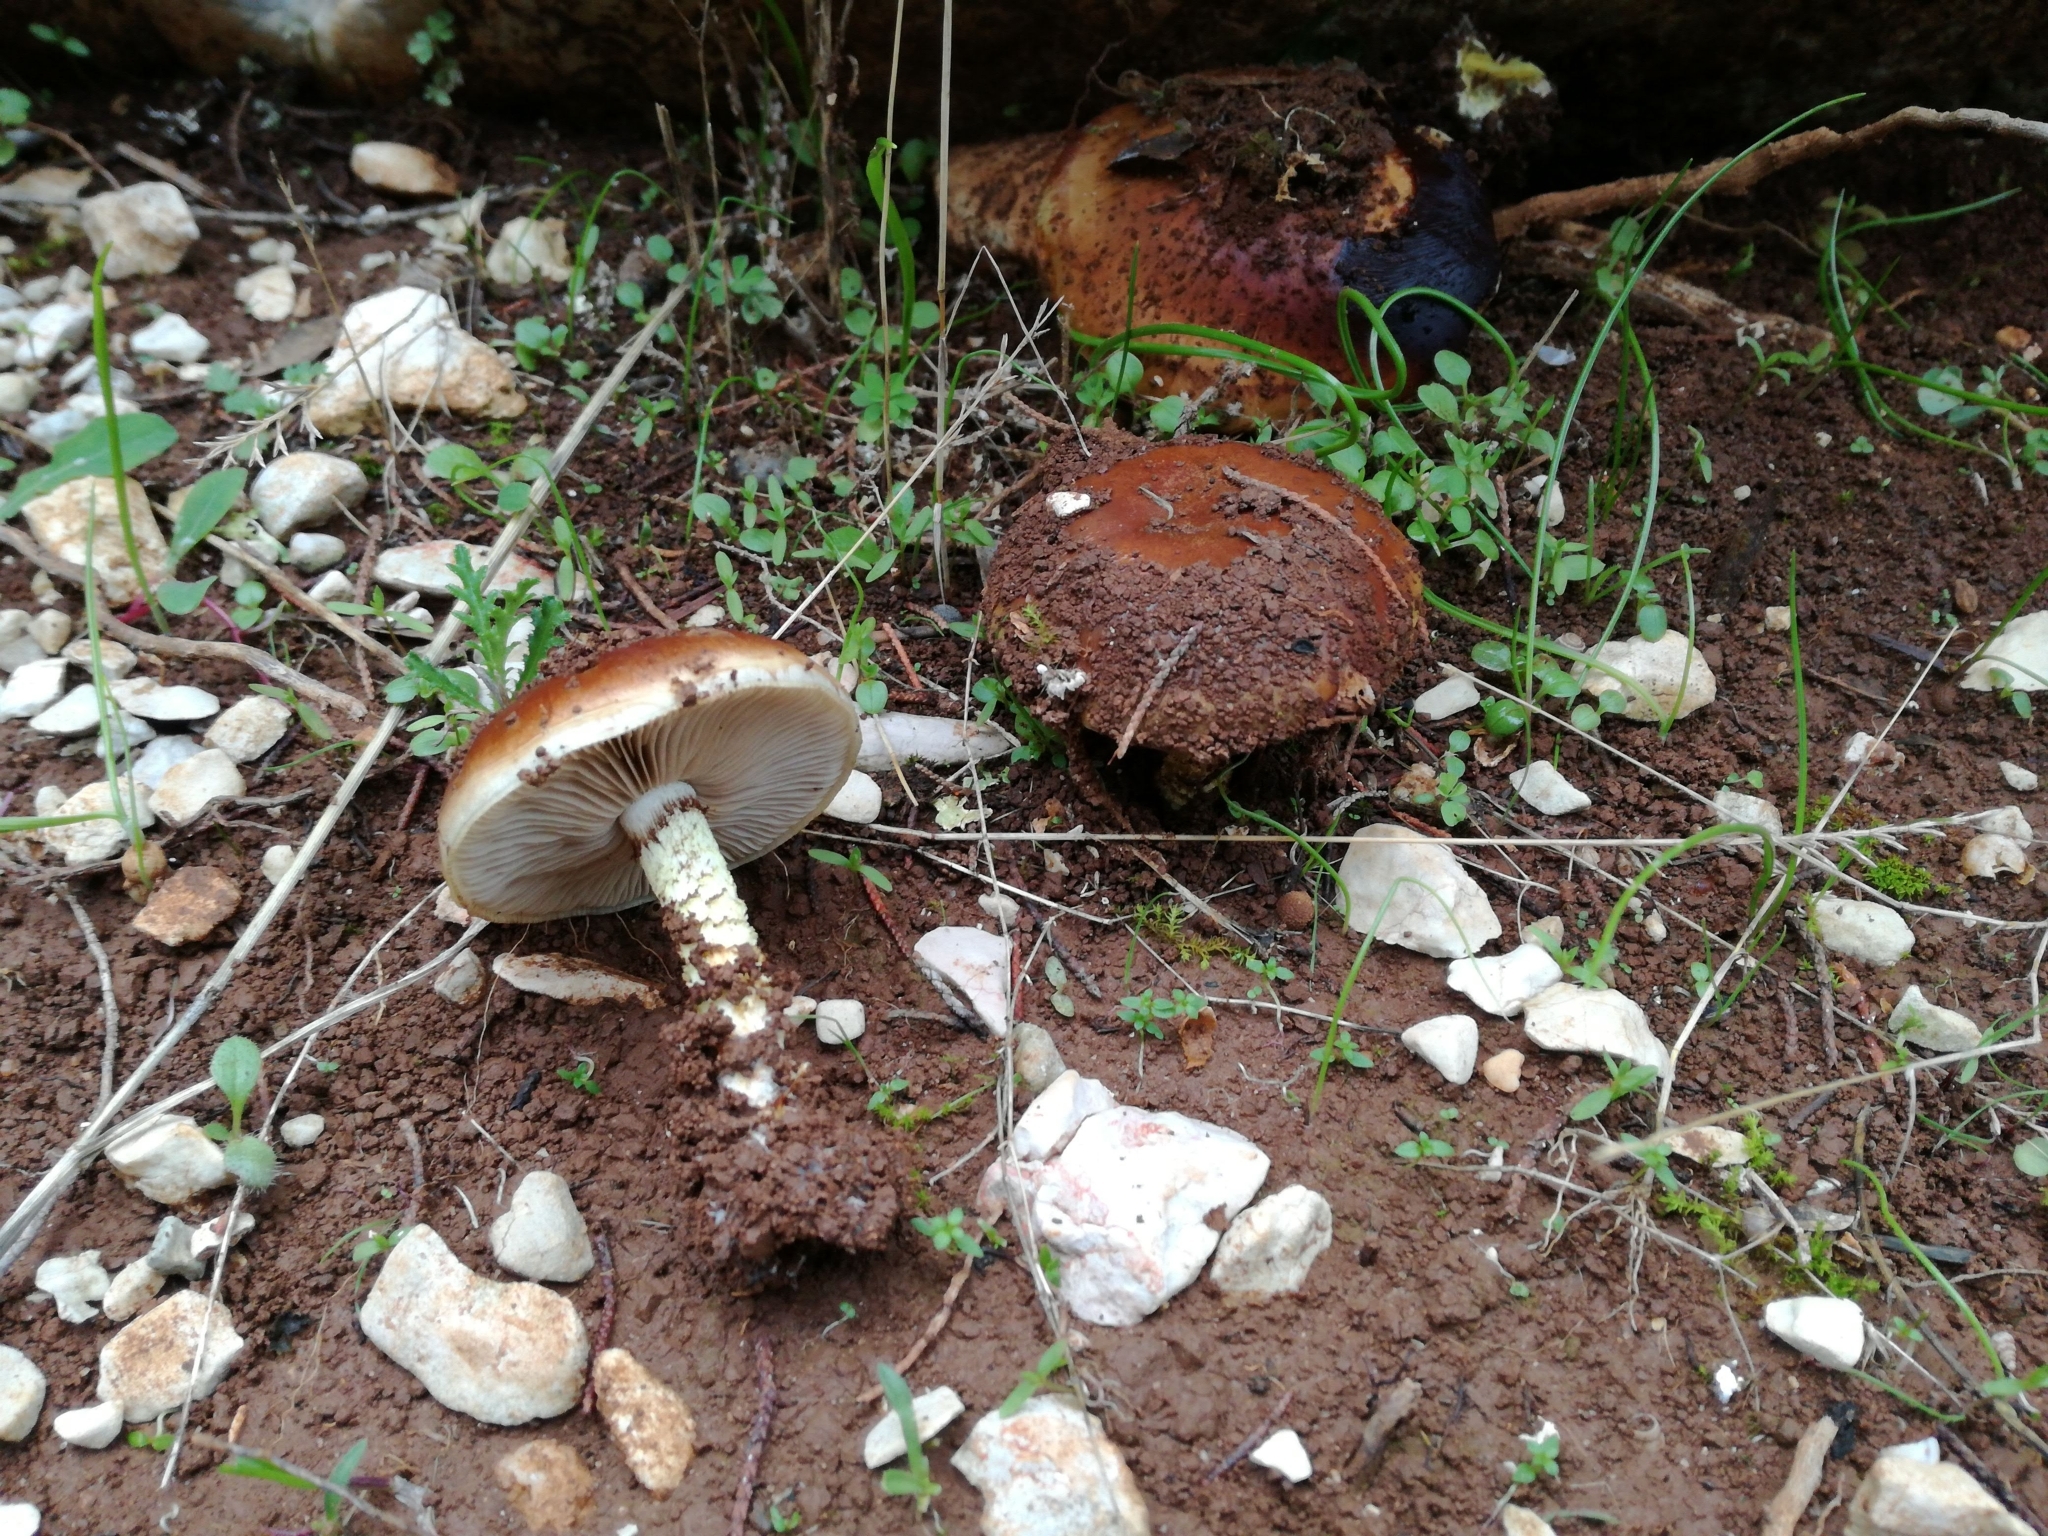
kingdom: Fungi
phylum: Basidiomycota
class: Agaricomycetes
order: Agaricales
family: Strophariaceae
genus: Pholiota
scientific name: Pholiota gallica
